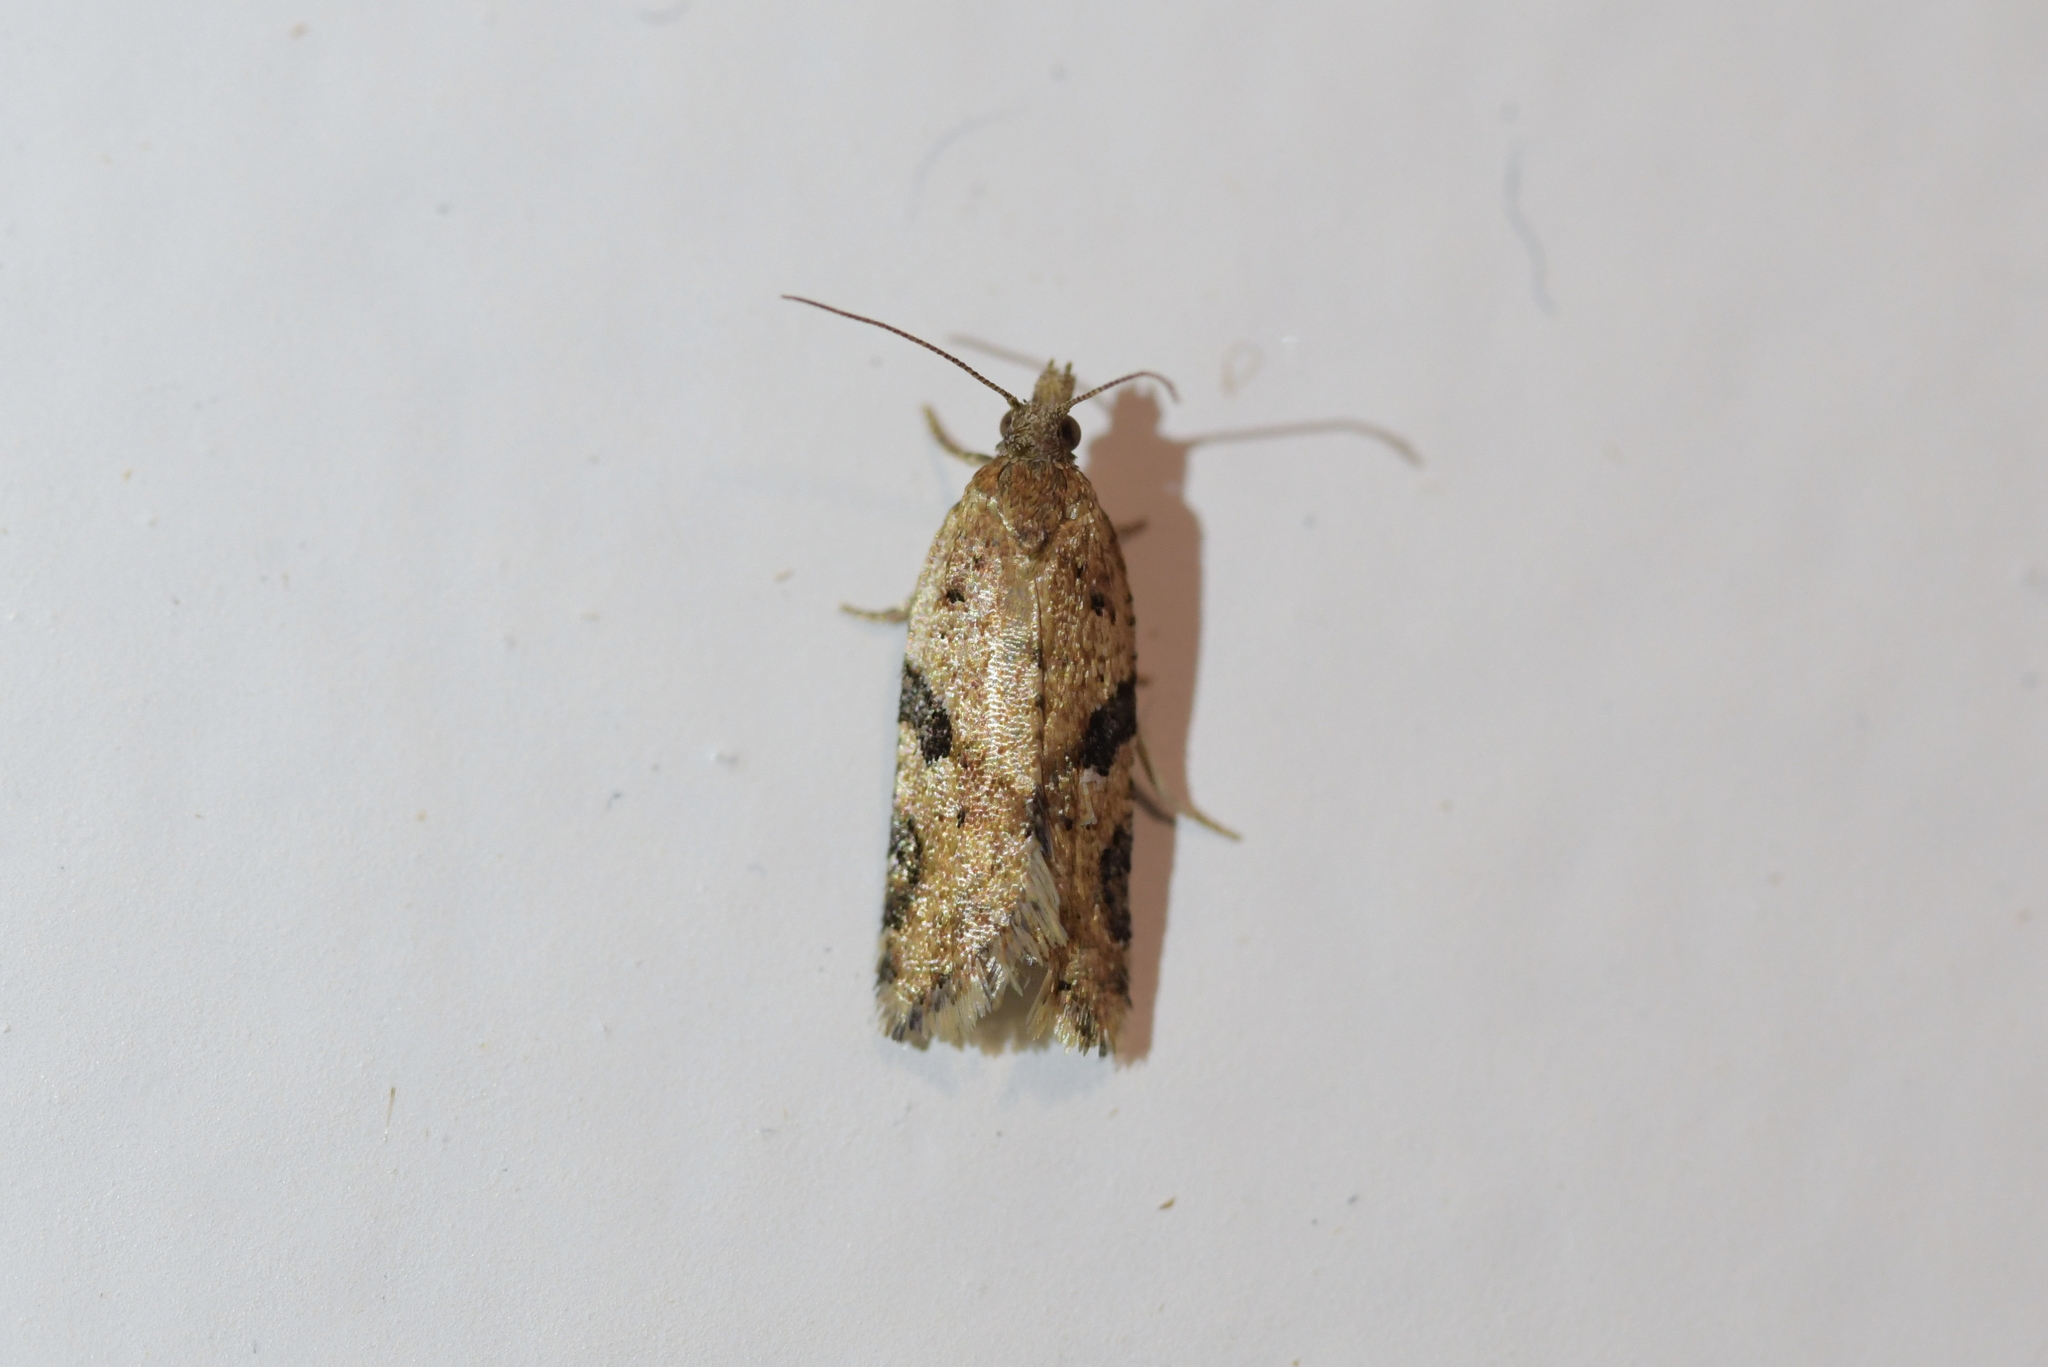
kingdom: Animalia
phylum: Arthropoda
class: Insecta
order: Lepidoptera
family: Tortricidae
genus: Capua
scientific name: Capua semiferana
